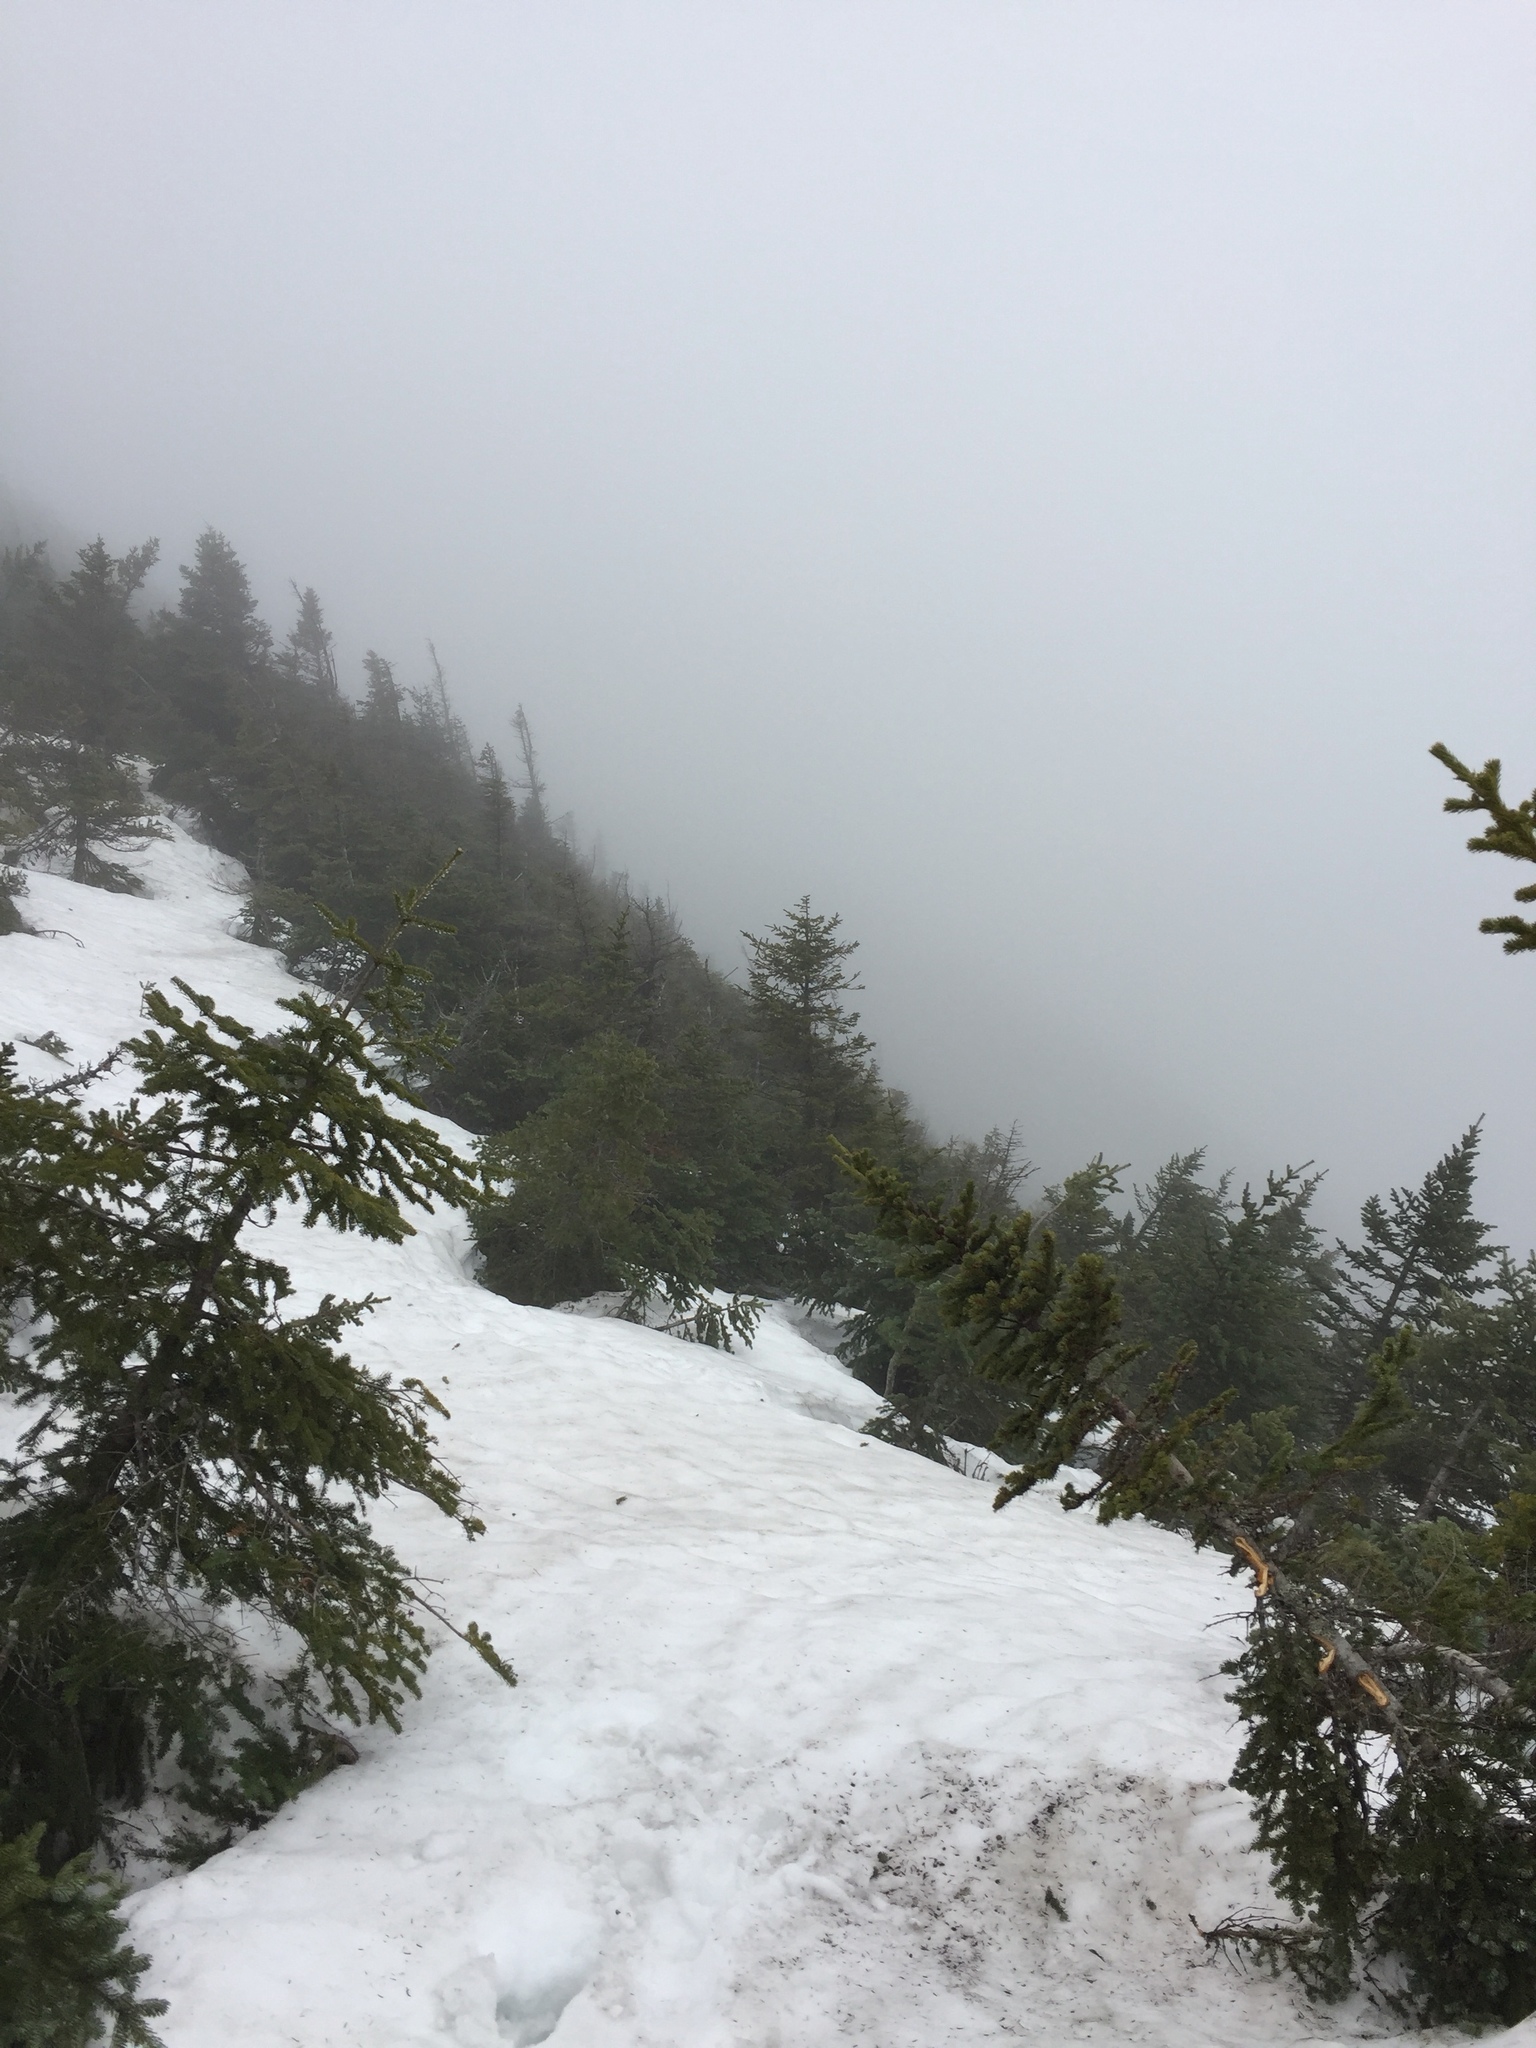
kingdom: Plantae
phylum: Tracheophyta
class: Pinopsida
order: Pinales
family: Pinaceae
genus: Abies
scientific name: Abies balsamea
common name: Balsam fir
